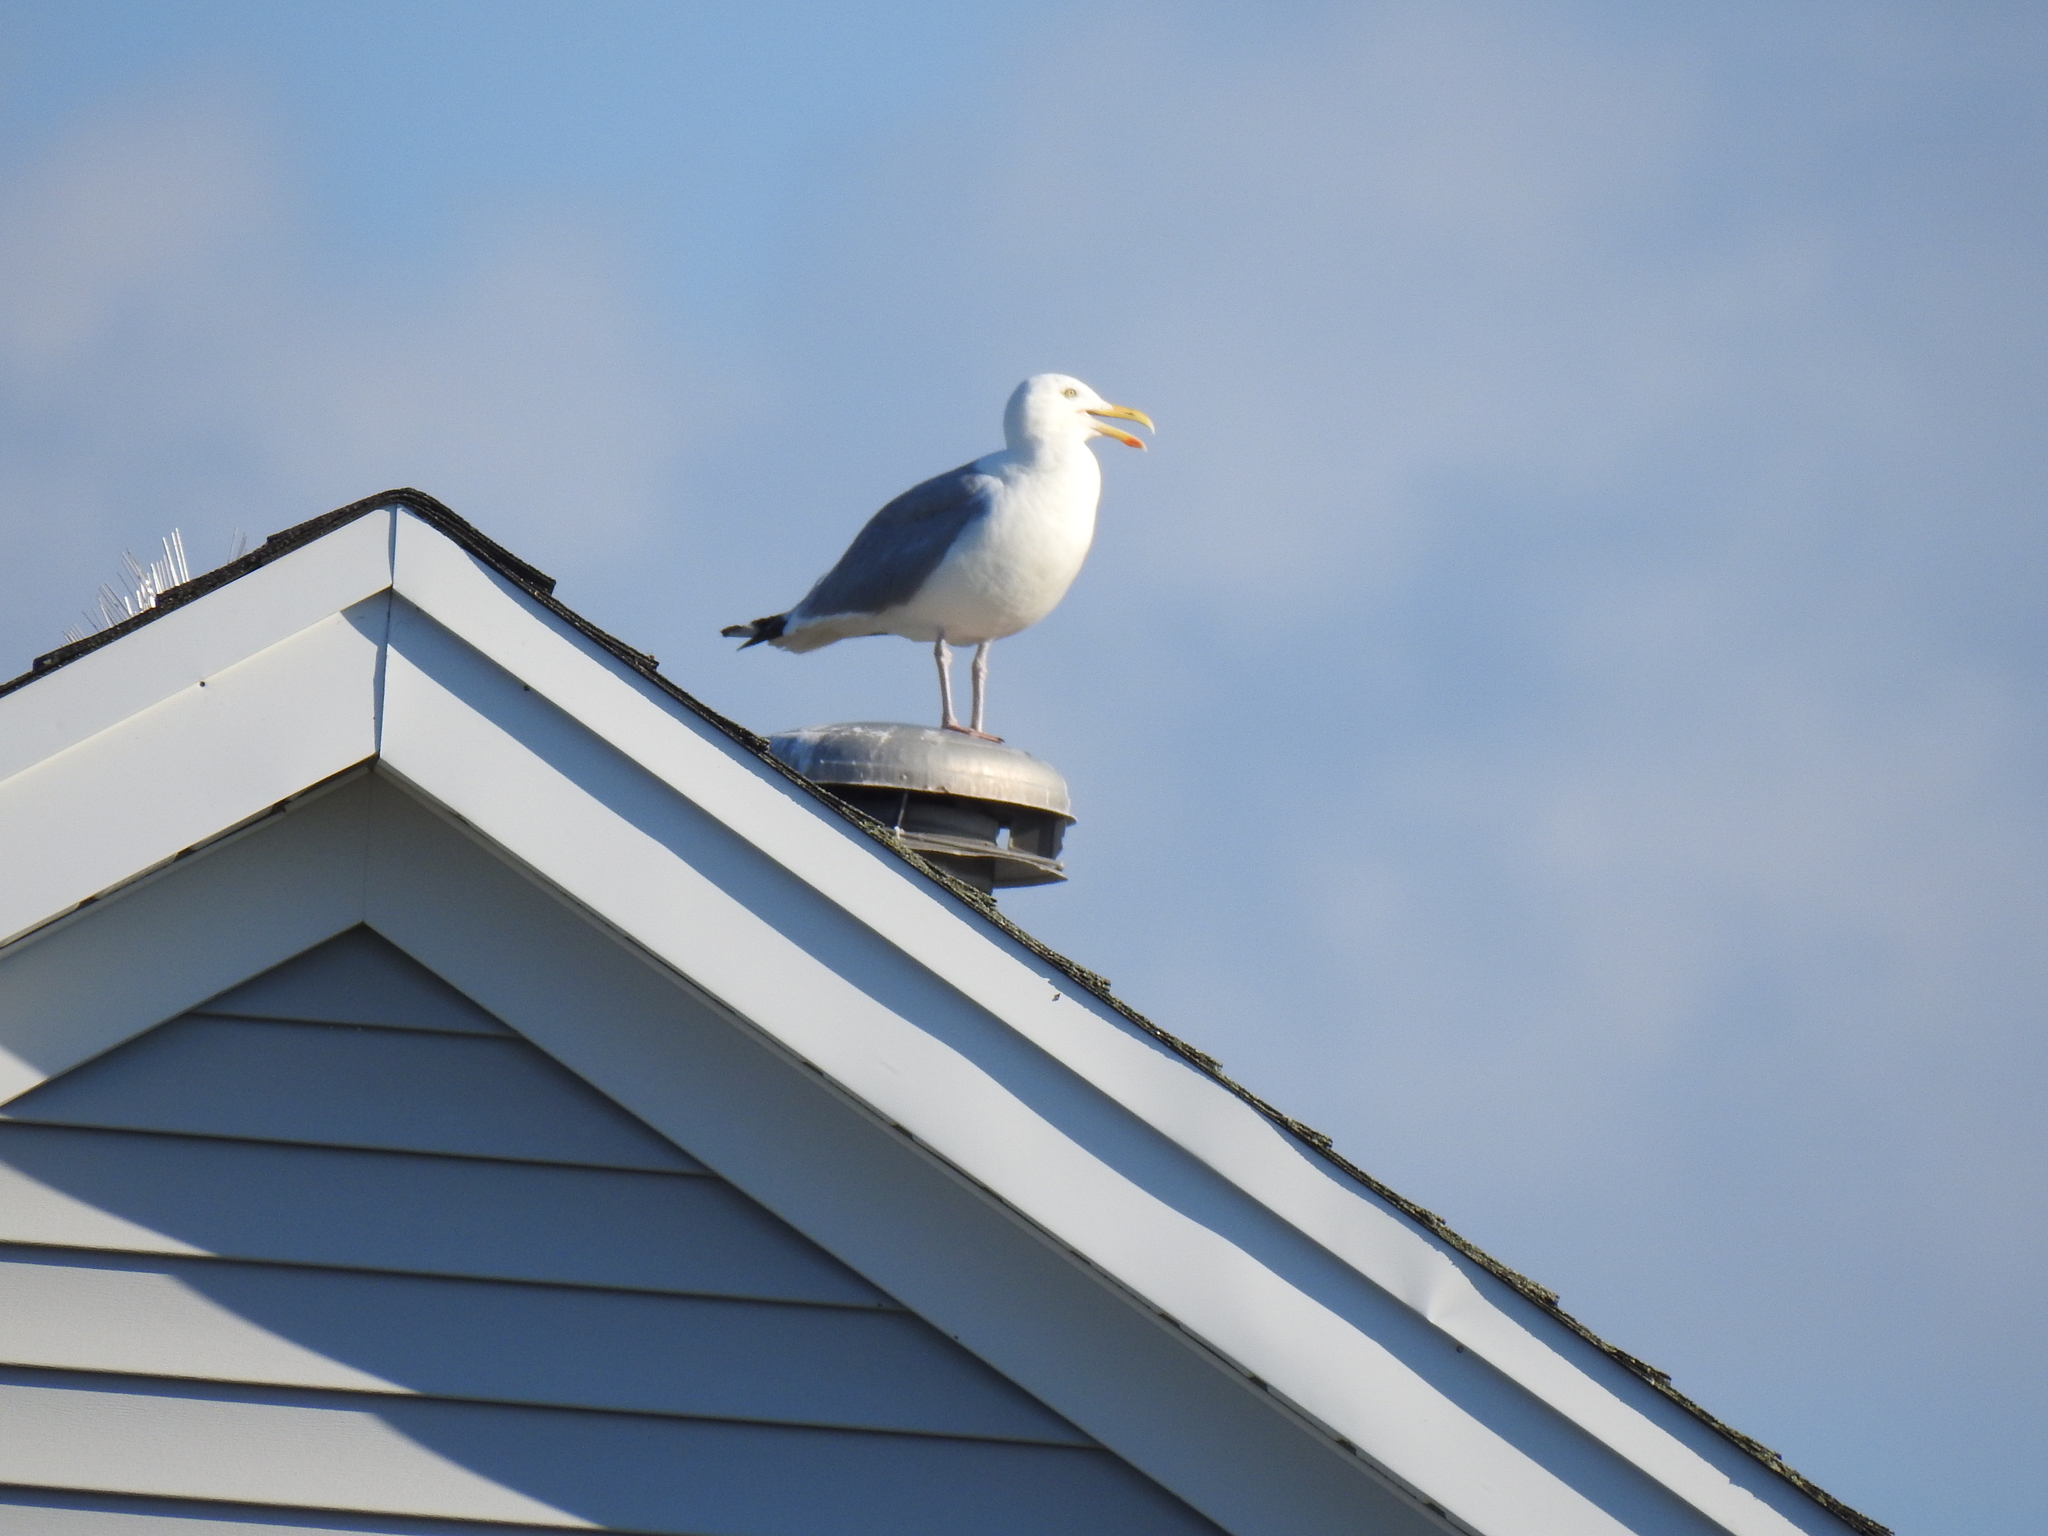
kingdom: Animalia
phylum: Chordata
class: Aves
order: Charadriiformes
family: Laridae
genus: Larus
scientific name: Larus argentatus
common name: Herring gull
